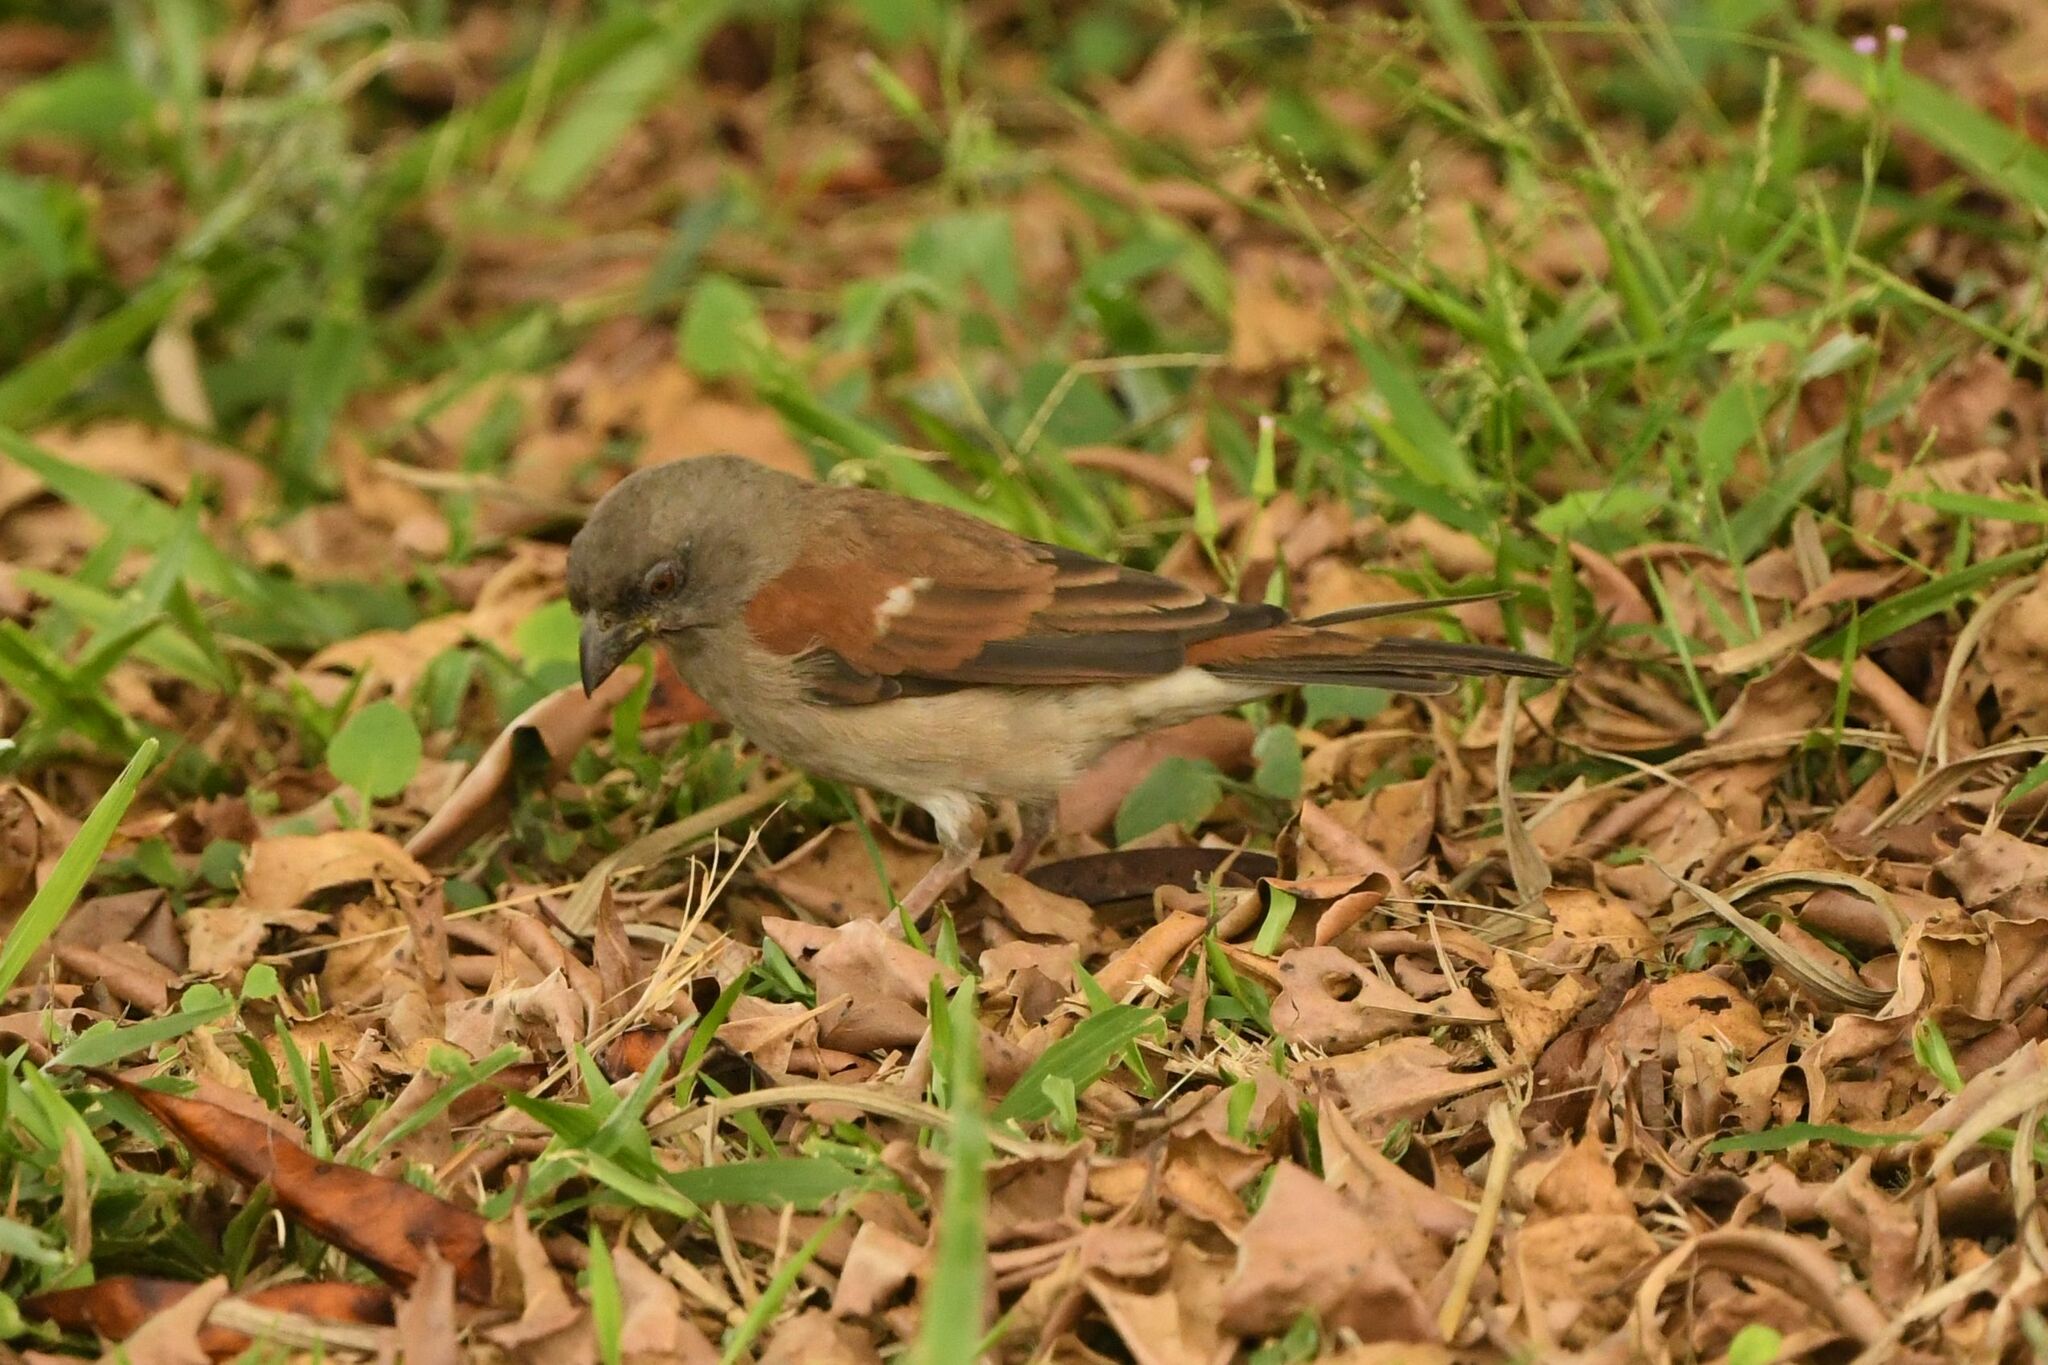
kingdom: Animalia
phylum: Chordata
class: Aves
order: Passeriformes
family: Passeridae
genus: Passer
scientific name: Passer griseus
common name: Northern grey-headed sparrow
